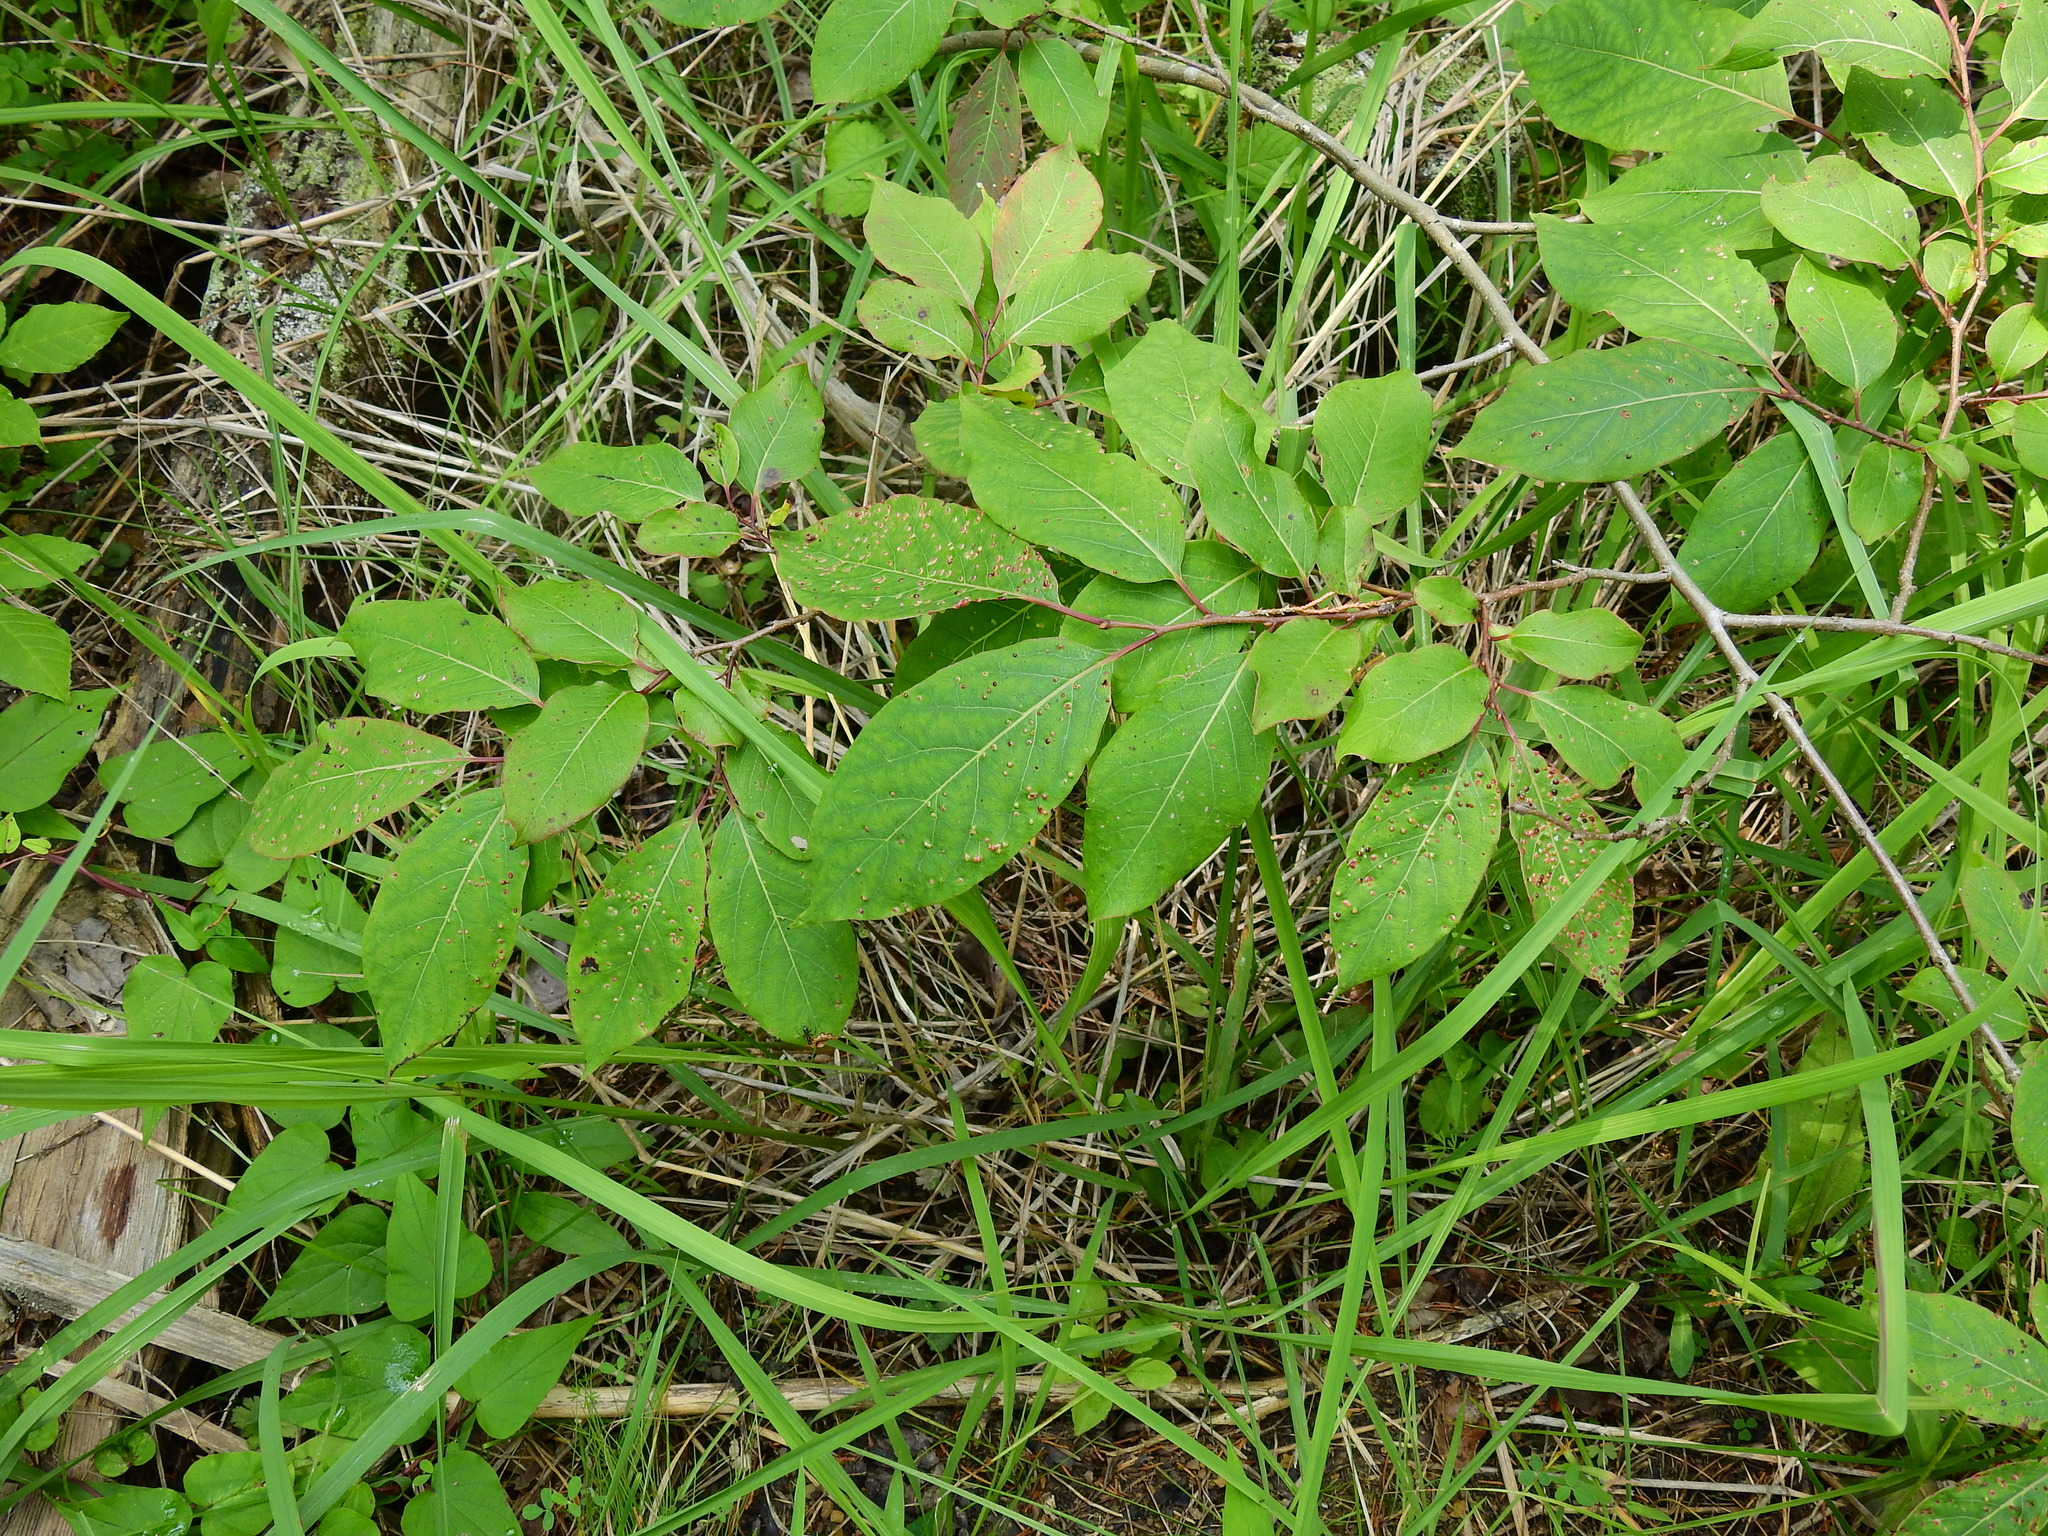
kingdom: Plantae
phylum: Tracheophyta
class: Magnoliopsida
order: Ericales
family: Ebenaceae
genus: Diospyros
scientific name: Diospyros virginiana
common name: Persimmon
